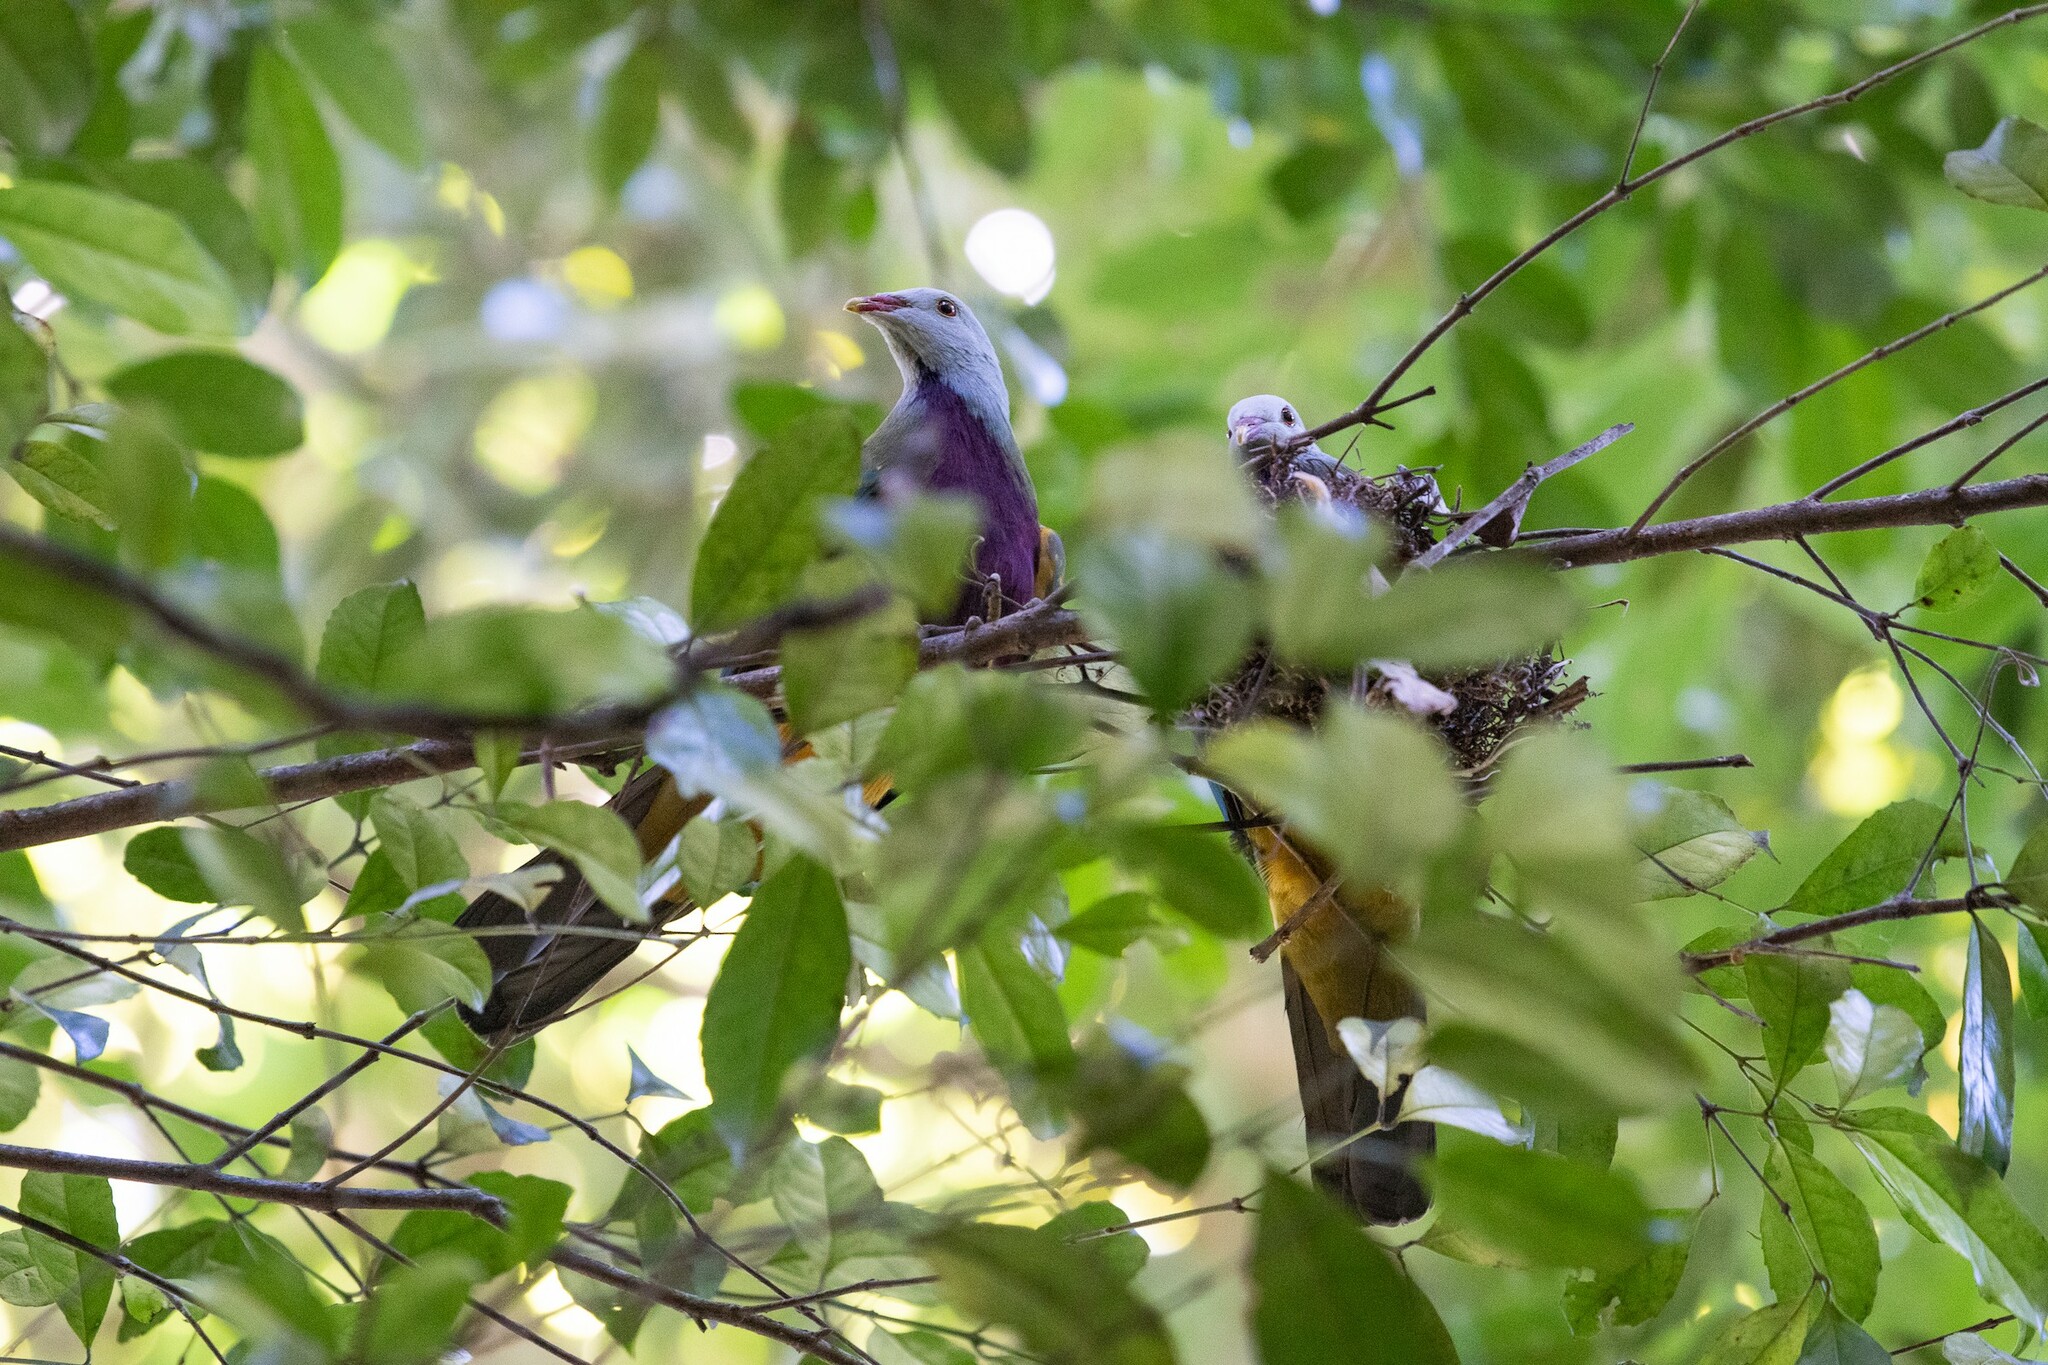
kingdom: Animalia
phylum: Chordata
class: Aves
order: Columbiformes
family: Columbidae
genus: Ptilinopus
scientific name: Ptilinopus magnificus
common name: Wompoo fruit dove
